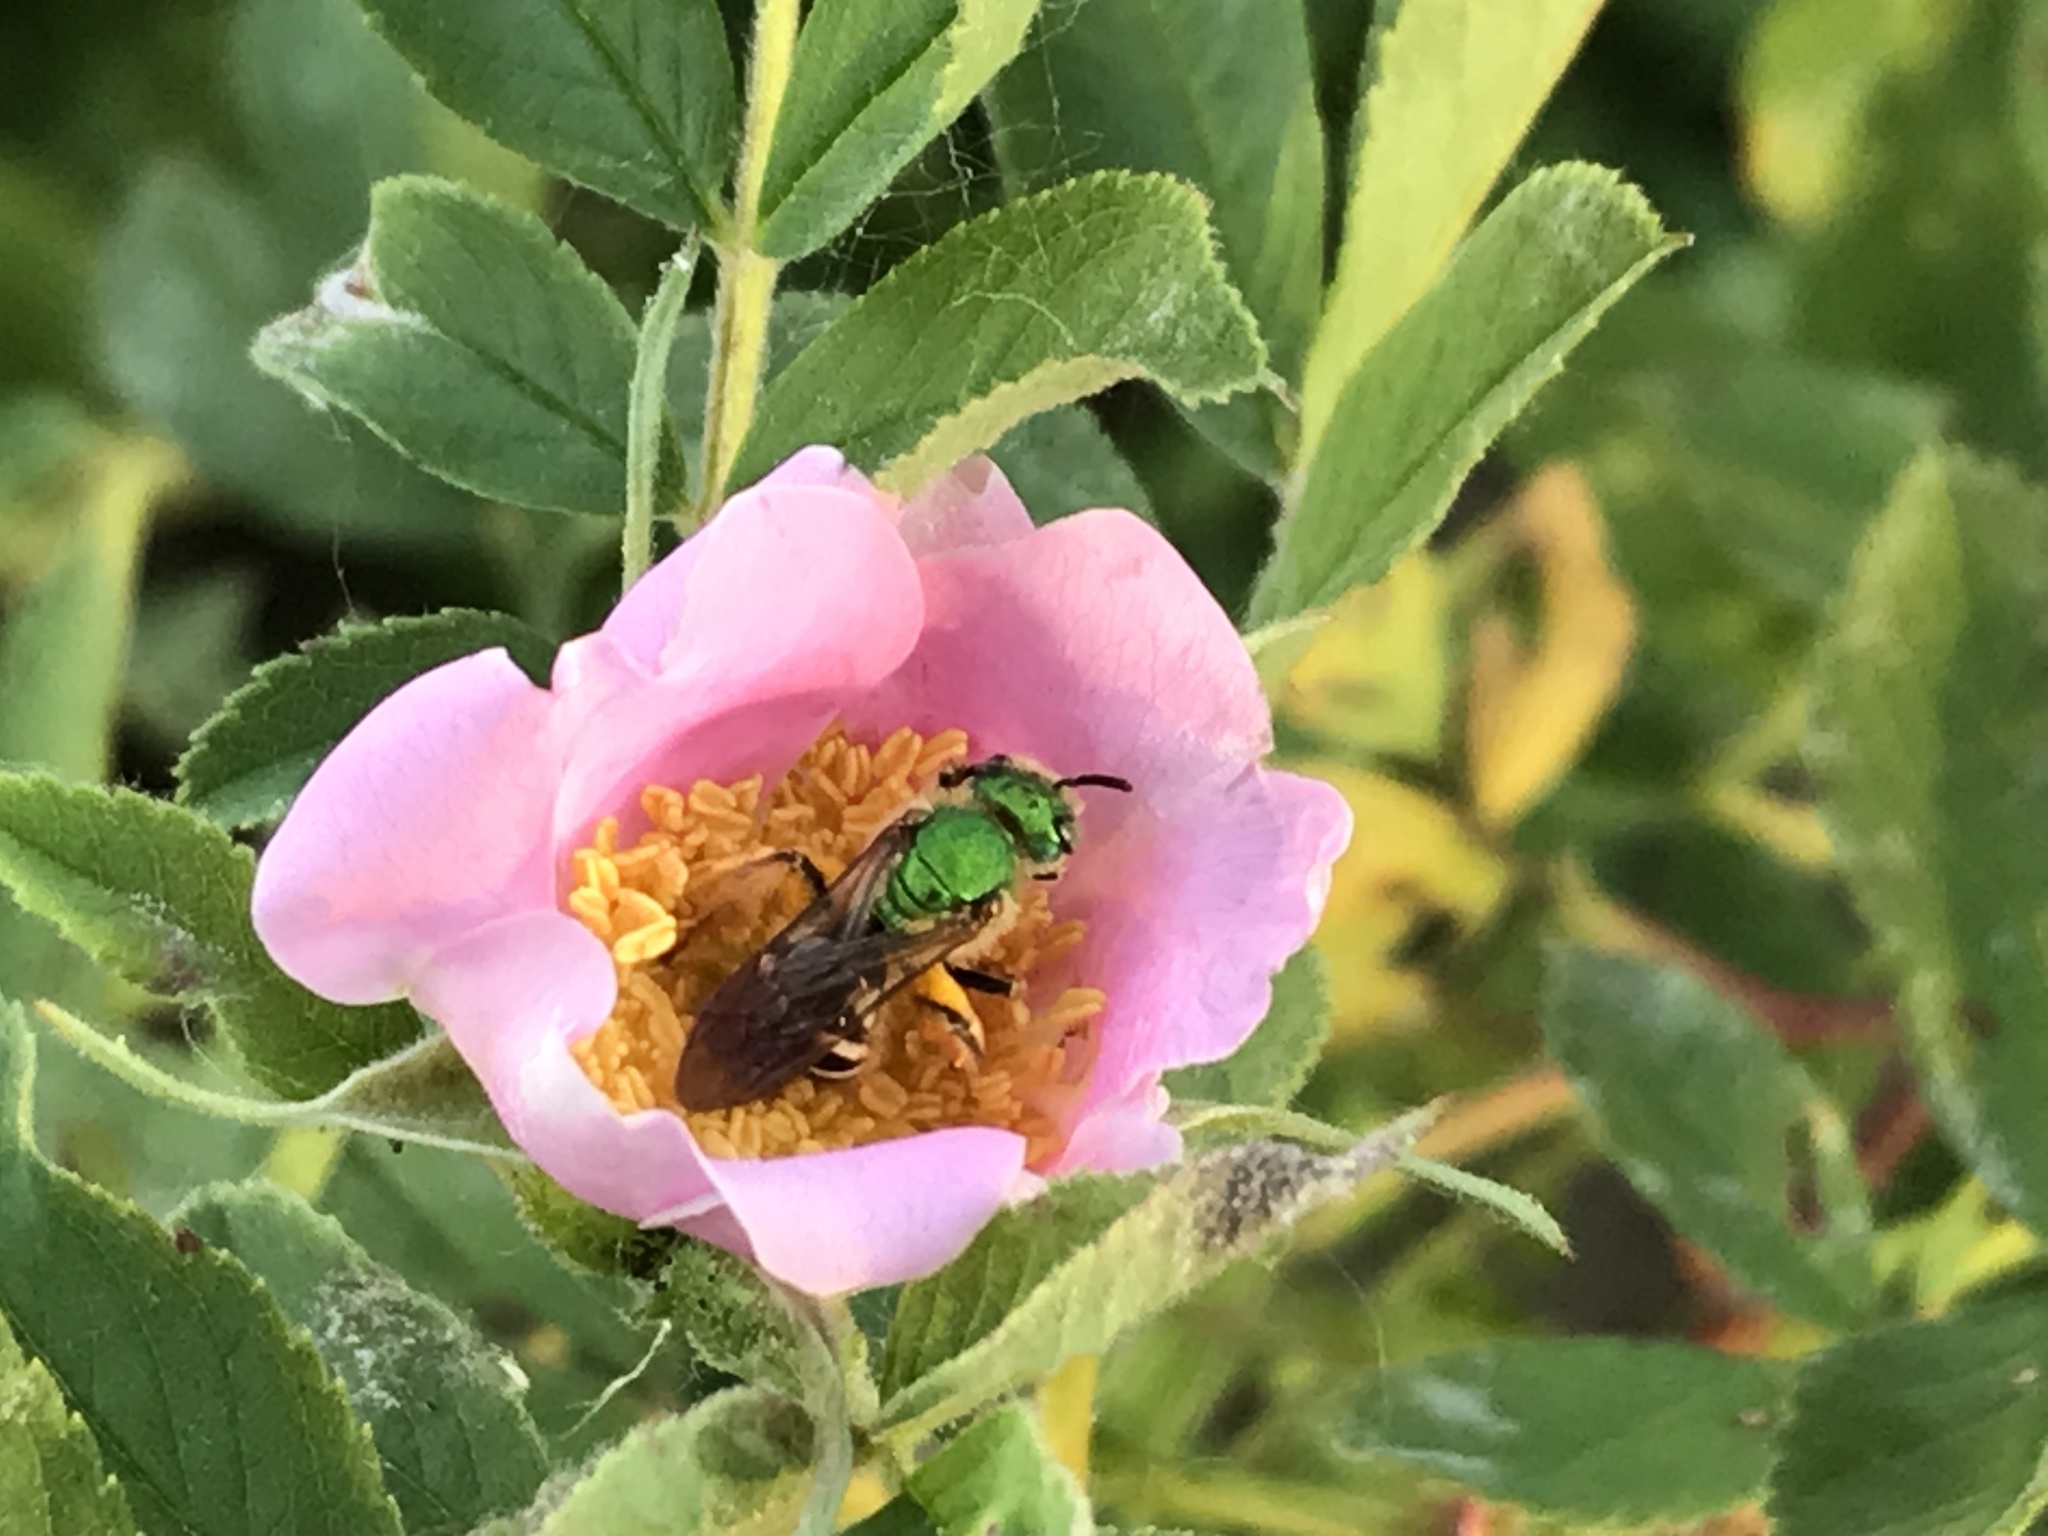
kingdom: Animalia
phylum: Arthropoda
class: Insecta
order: Hymenoptera
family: Halictidae
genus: Agapostemon
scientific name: Agapostemon virescens
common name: Bicolored striped sweat bee
